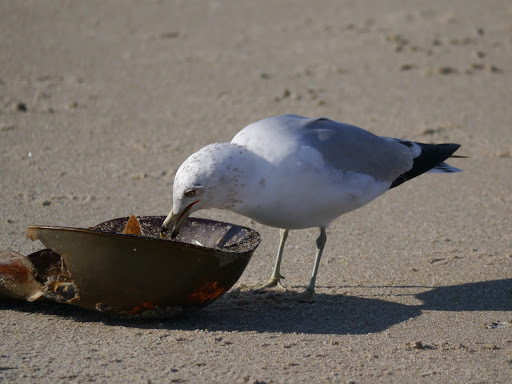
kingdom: Animalia
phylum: Chordata
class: Aves
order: Charadriiformes
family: Laridae
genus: Larus
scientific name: Larus delawarensis
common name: Ring-billed gull
